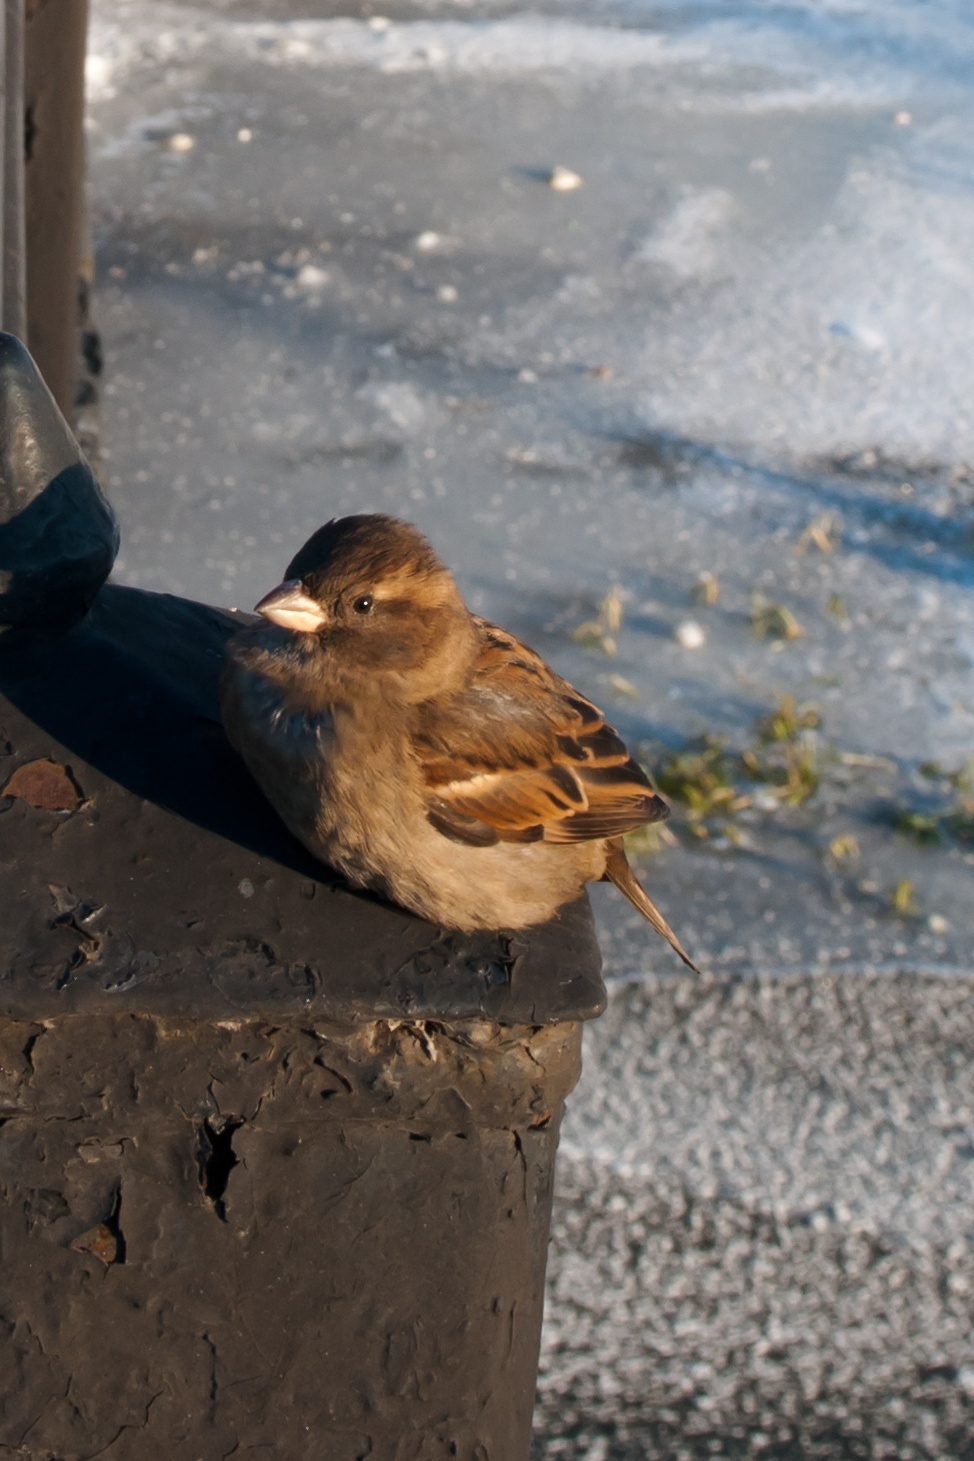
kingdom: Animalia
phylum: Chordata
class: Aves
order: Passeriformes
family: Passeridae
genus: Passer
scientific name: Passer domesticus
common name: House sparrow
